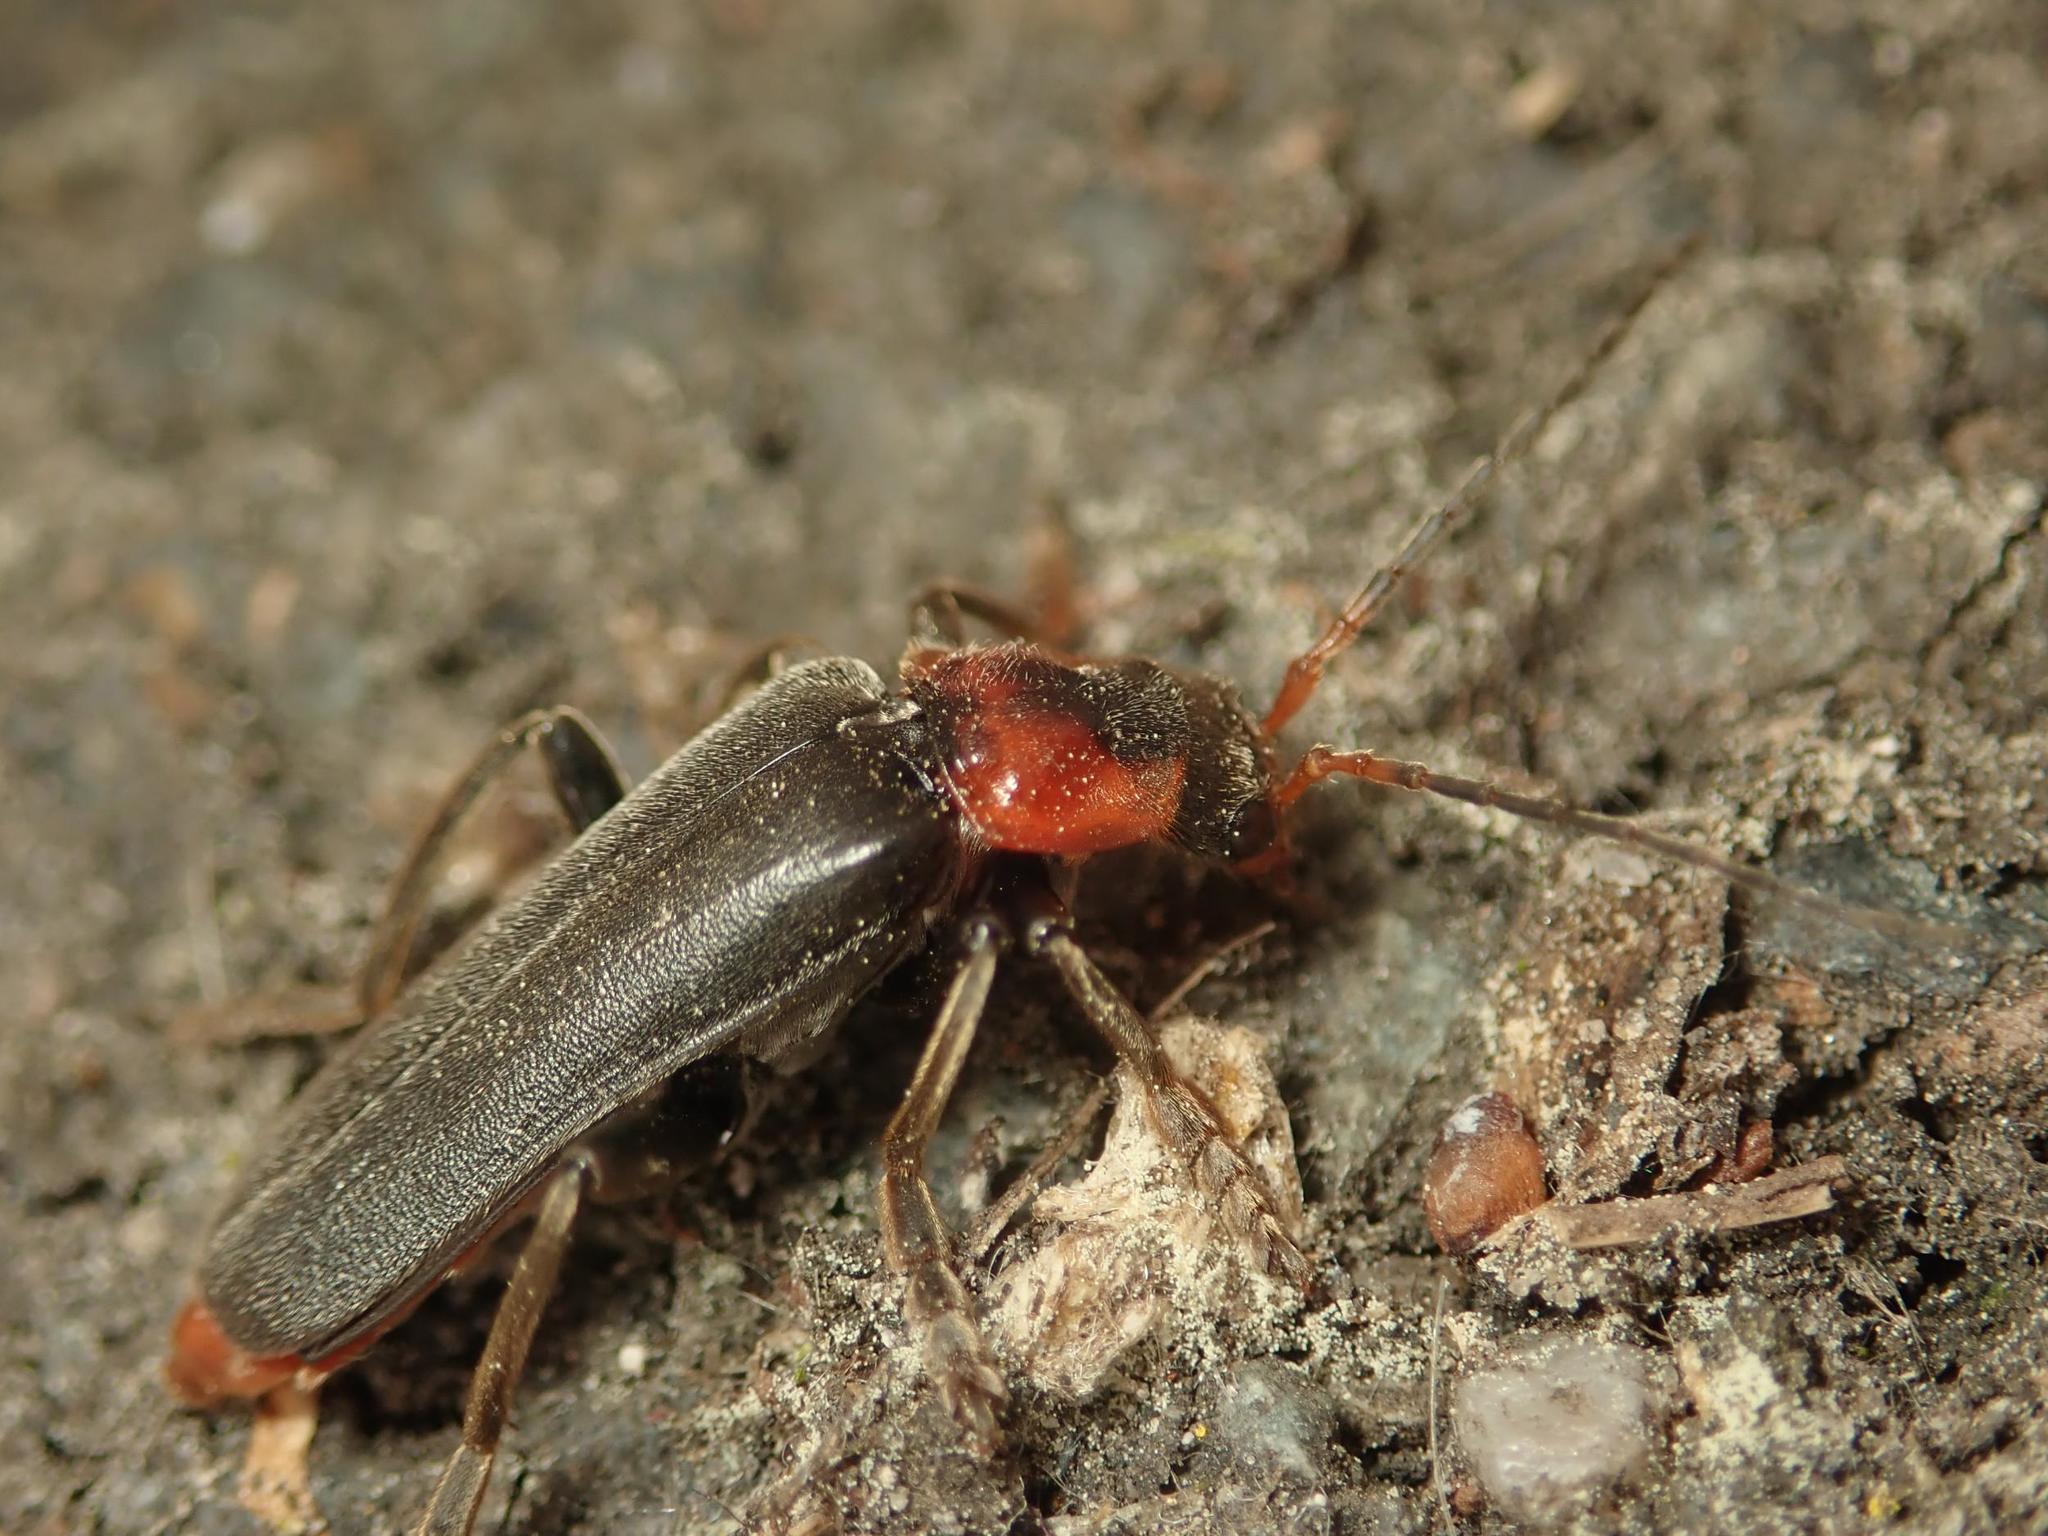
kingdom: Animalia
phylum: Arthropoda
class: Insecta
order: Coleoptera
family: Cantharidae
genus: Cantharis
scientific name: Cantharis fusca
